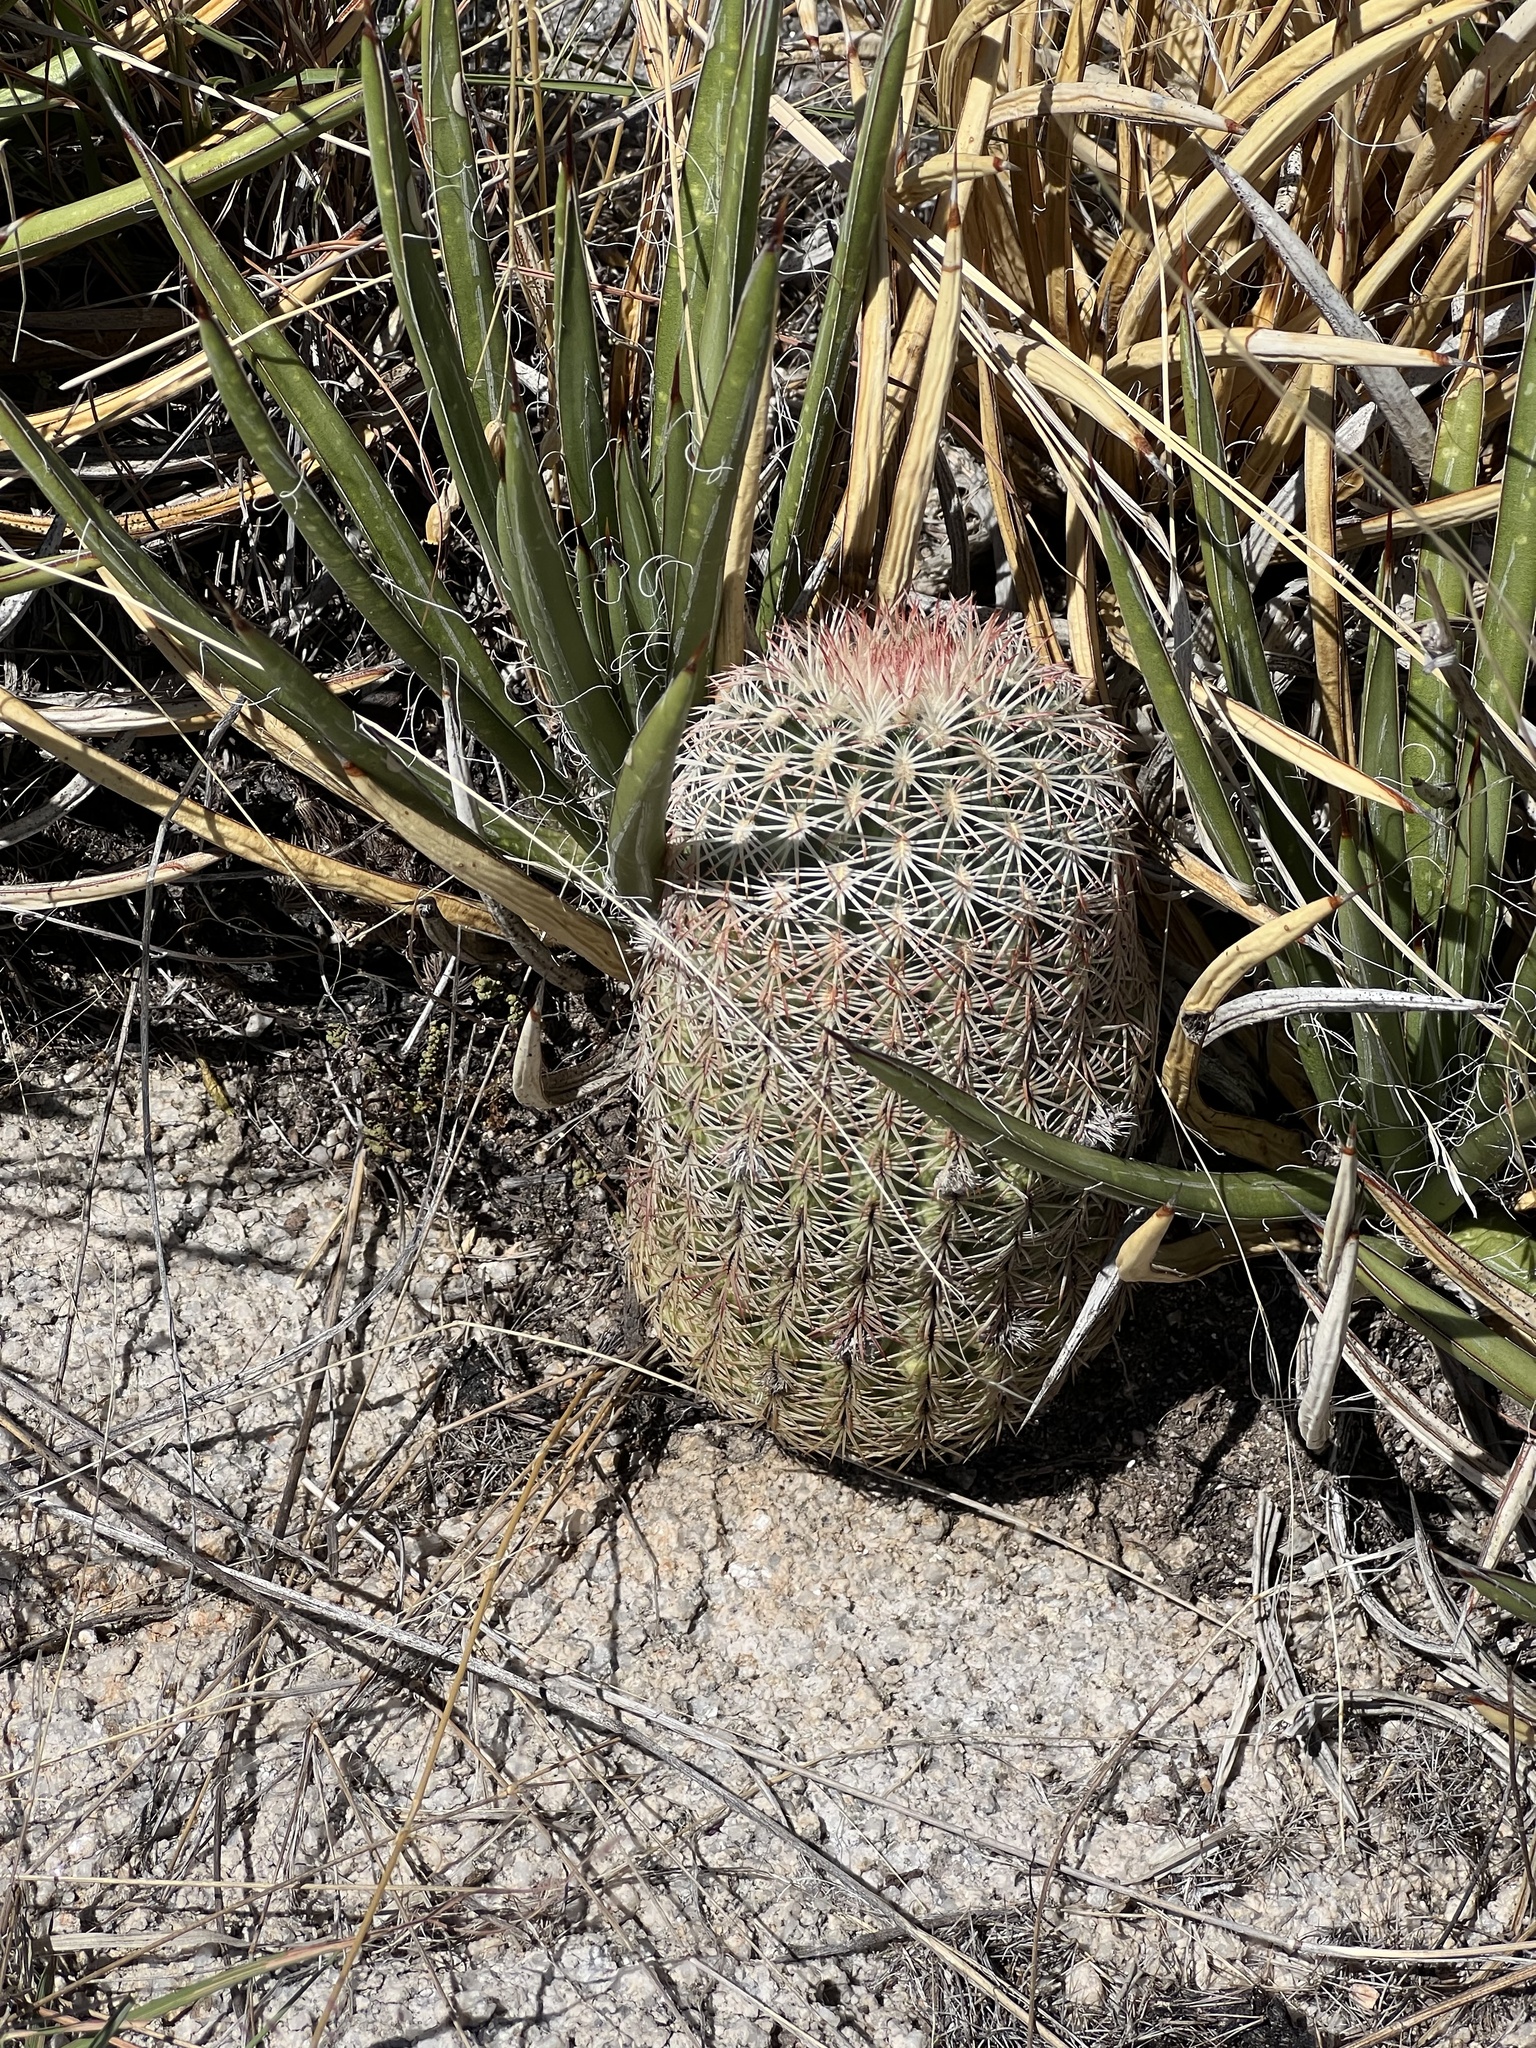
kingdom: Plantae
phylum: Tracheophyta
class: Magnoliopsida
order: Caryophyllales
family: Cactaceae
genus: Echinocereus
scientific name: Echinocereus rigidissimus
